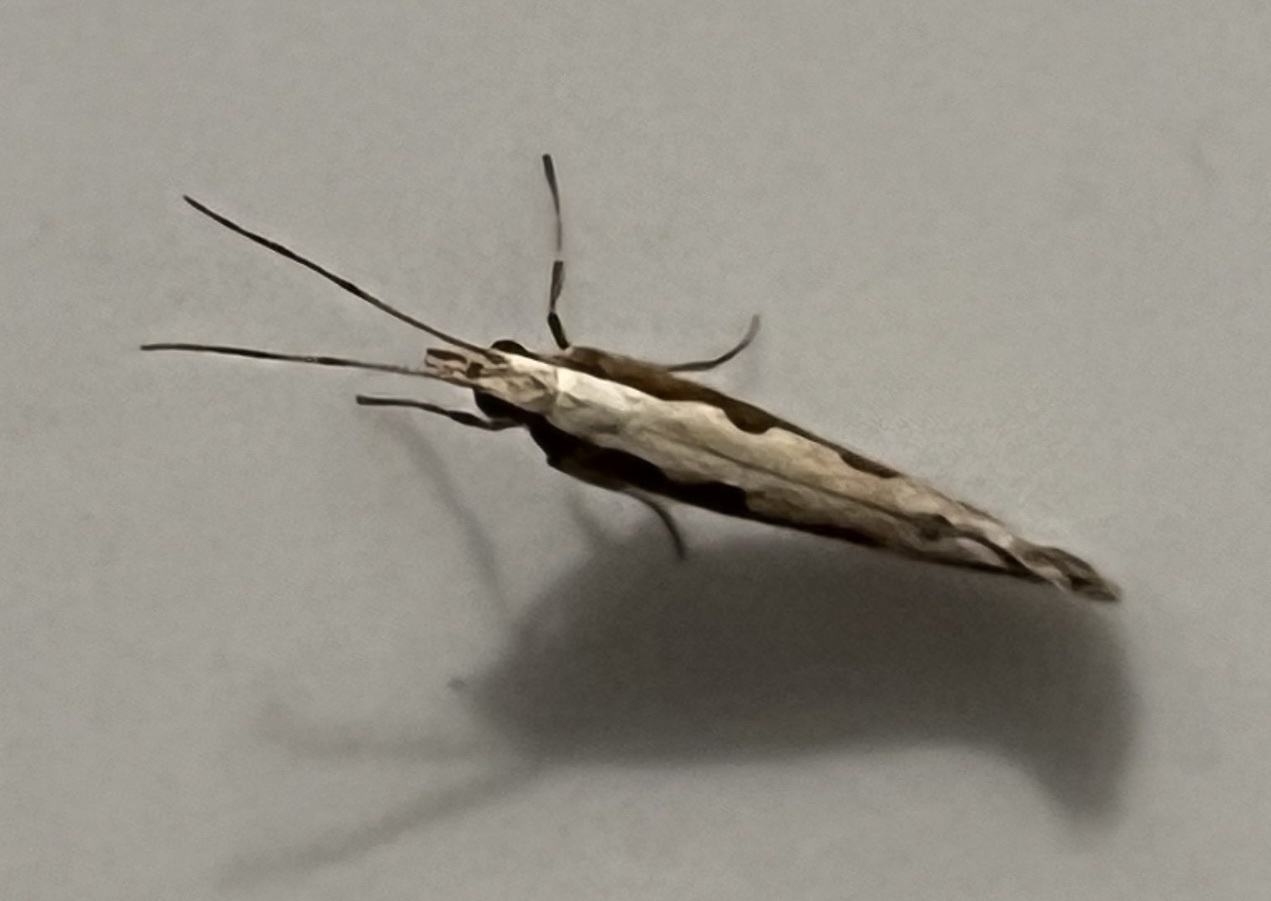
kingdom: Animalia
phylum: Arthropoda
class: Insecta
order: Lepidoptera
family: Plutellidae
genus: Plutella
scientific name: Plutella xylostella
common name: Diamond-back moth
